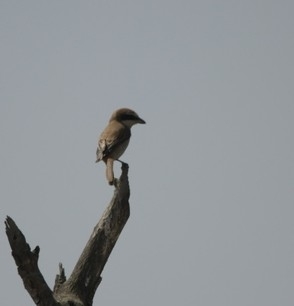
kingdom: Animalia
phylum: Chordata
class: Aves
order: Passeriformes
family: Laniidae
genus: Lanius
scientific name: Lanius cristatus
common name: Brown shrike
